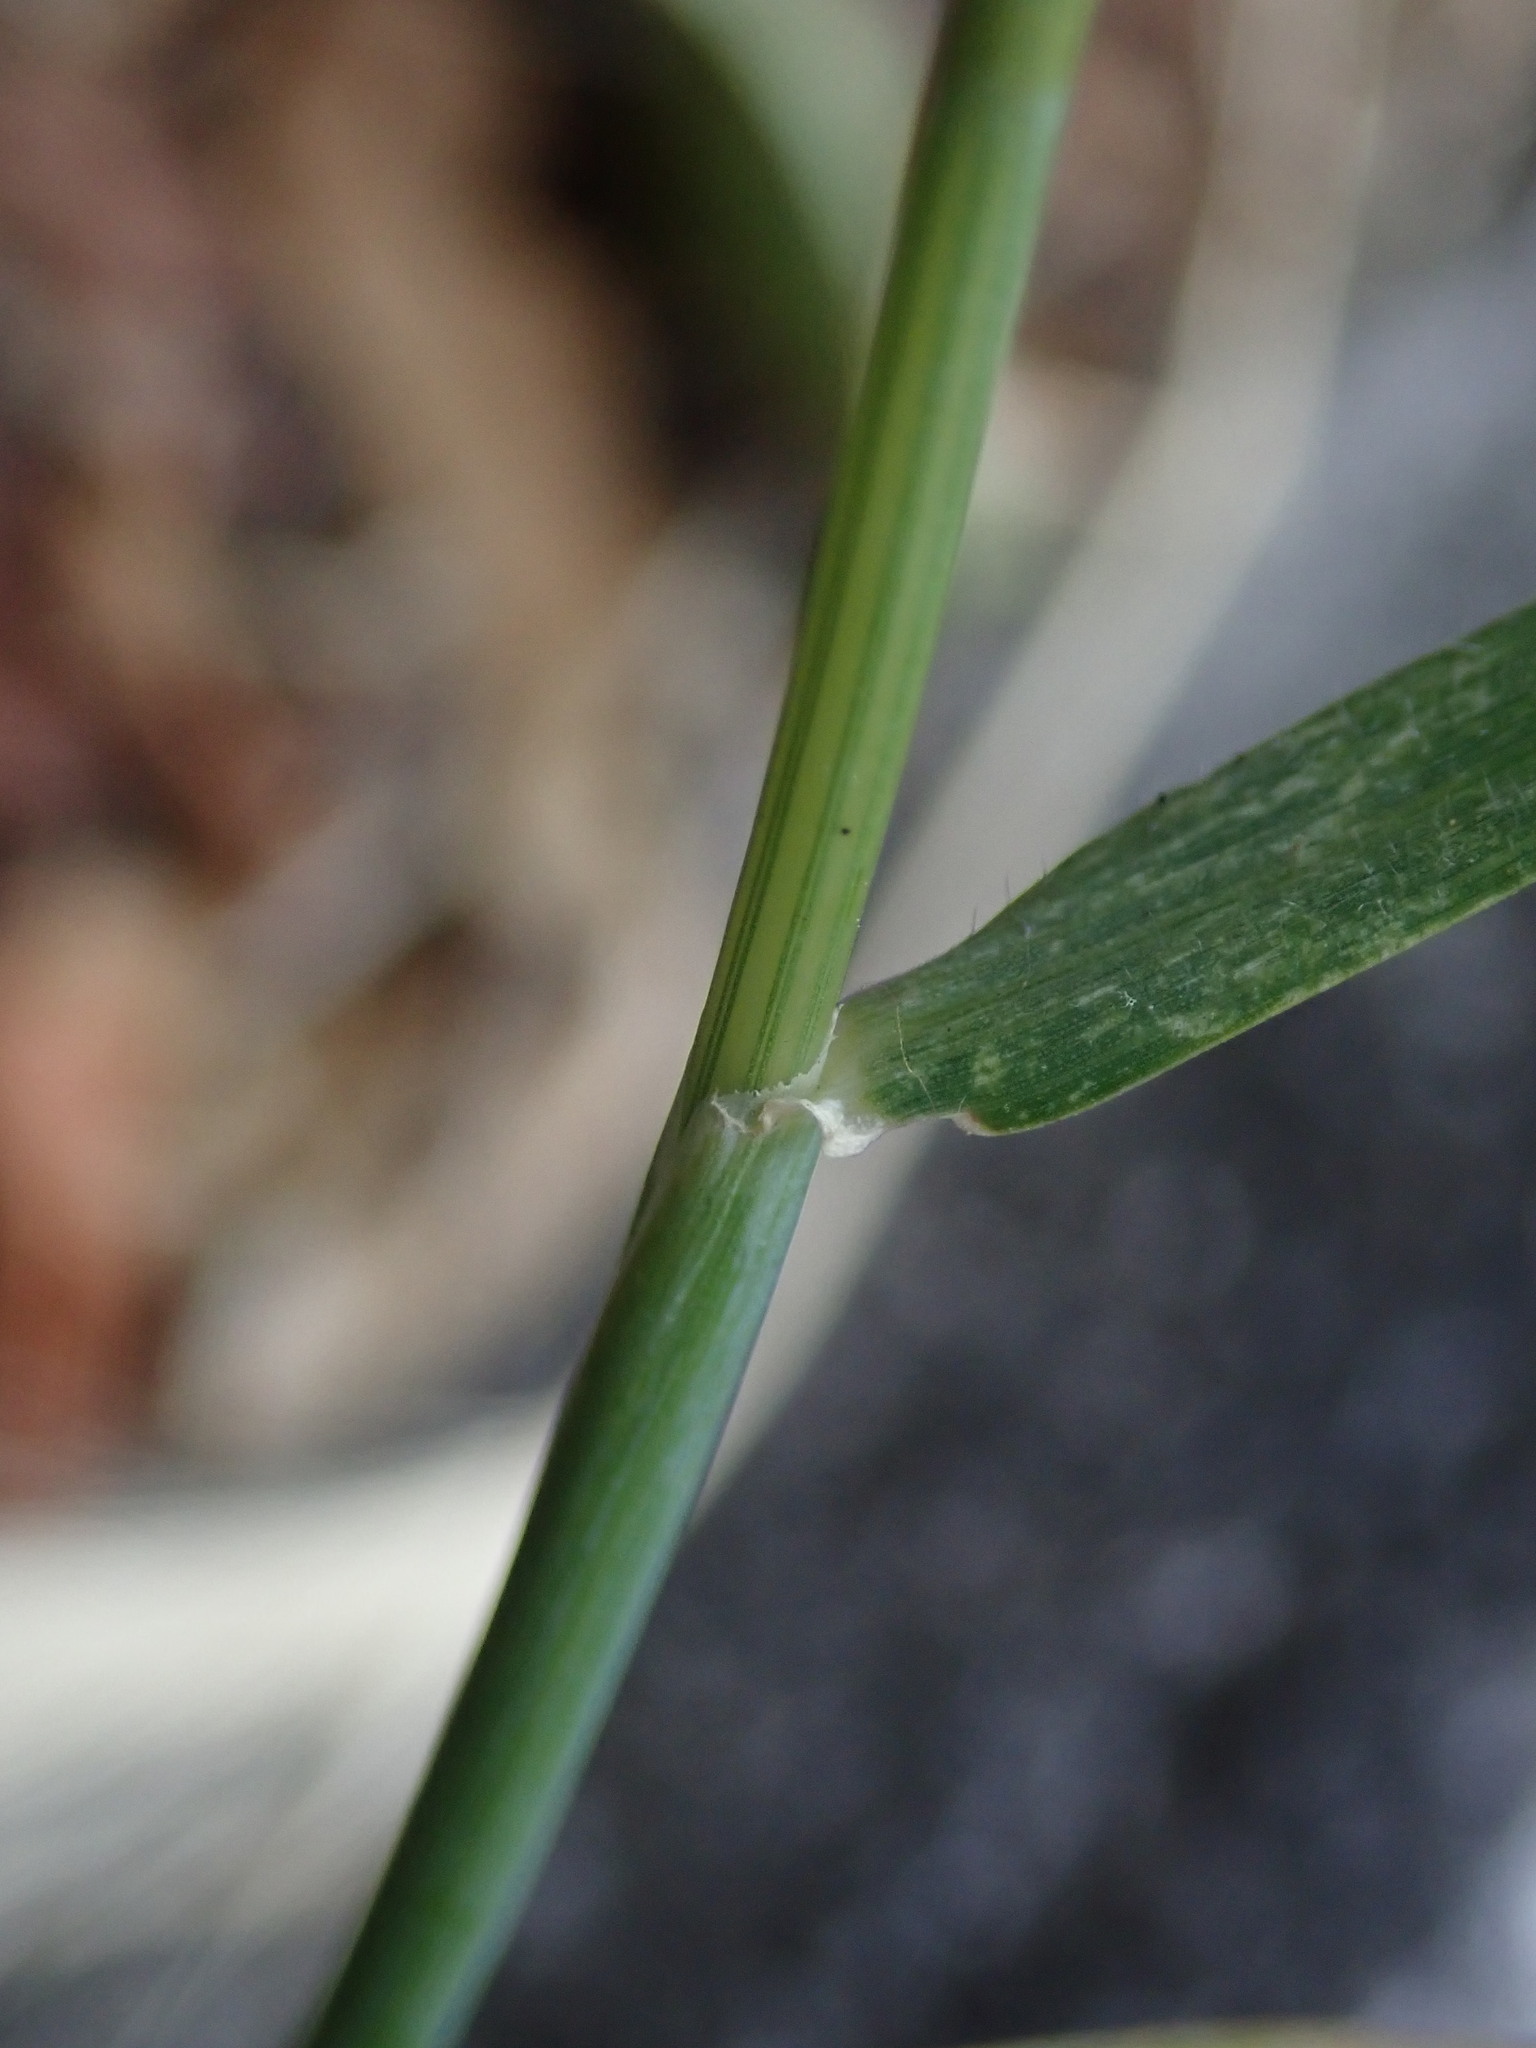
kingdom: Plantae
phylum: Tracheophyta
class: Liliopsida
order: Poales
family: Poaceae
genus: Hordeum
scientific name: Hordeum murinum
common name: Wall barley
